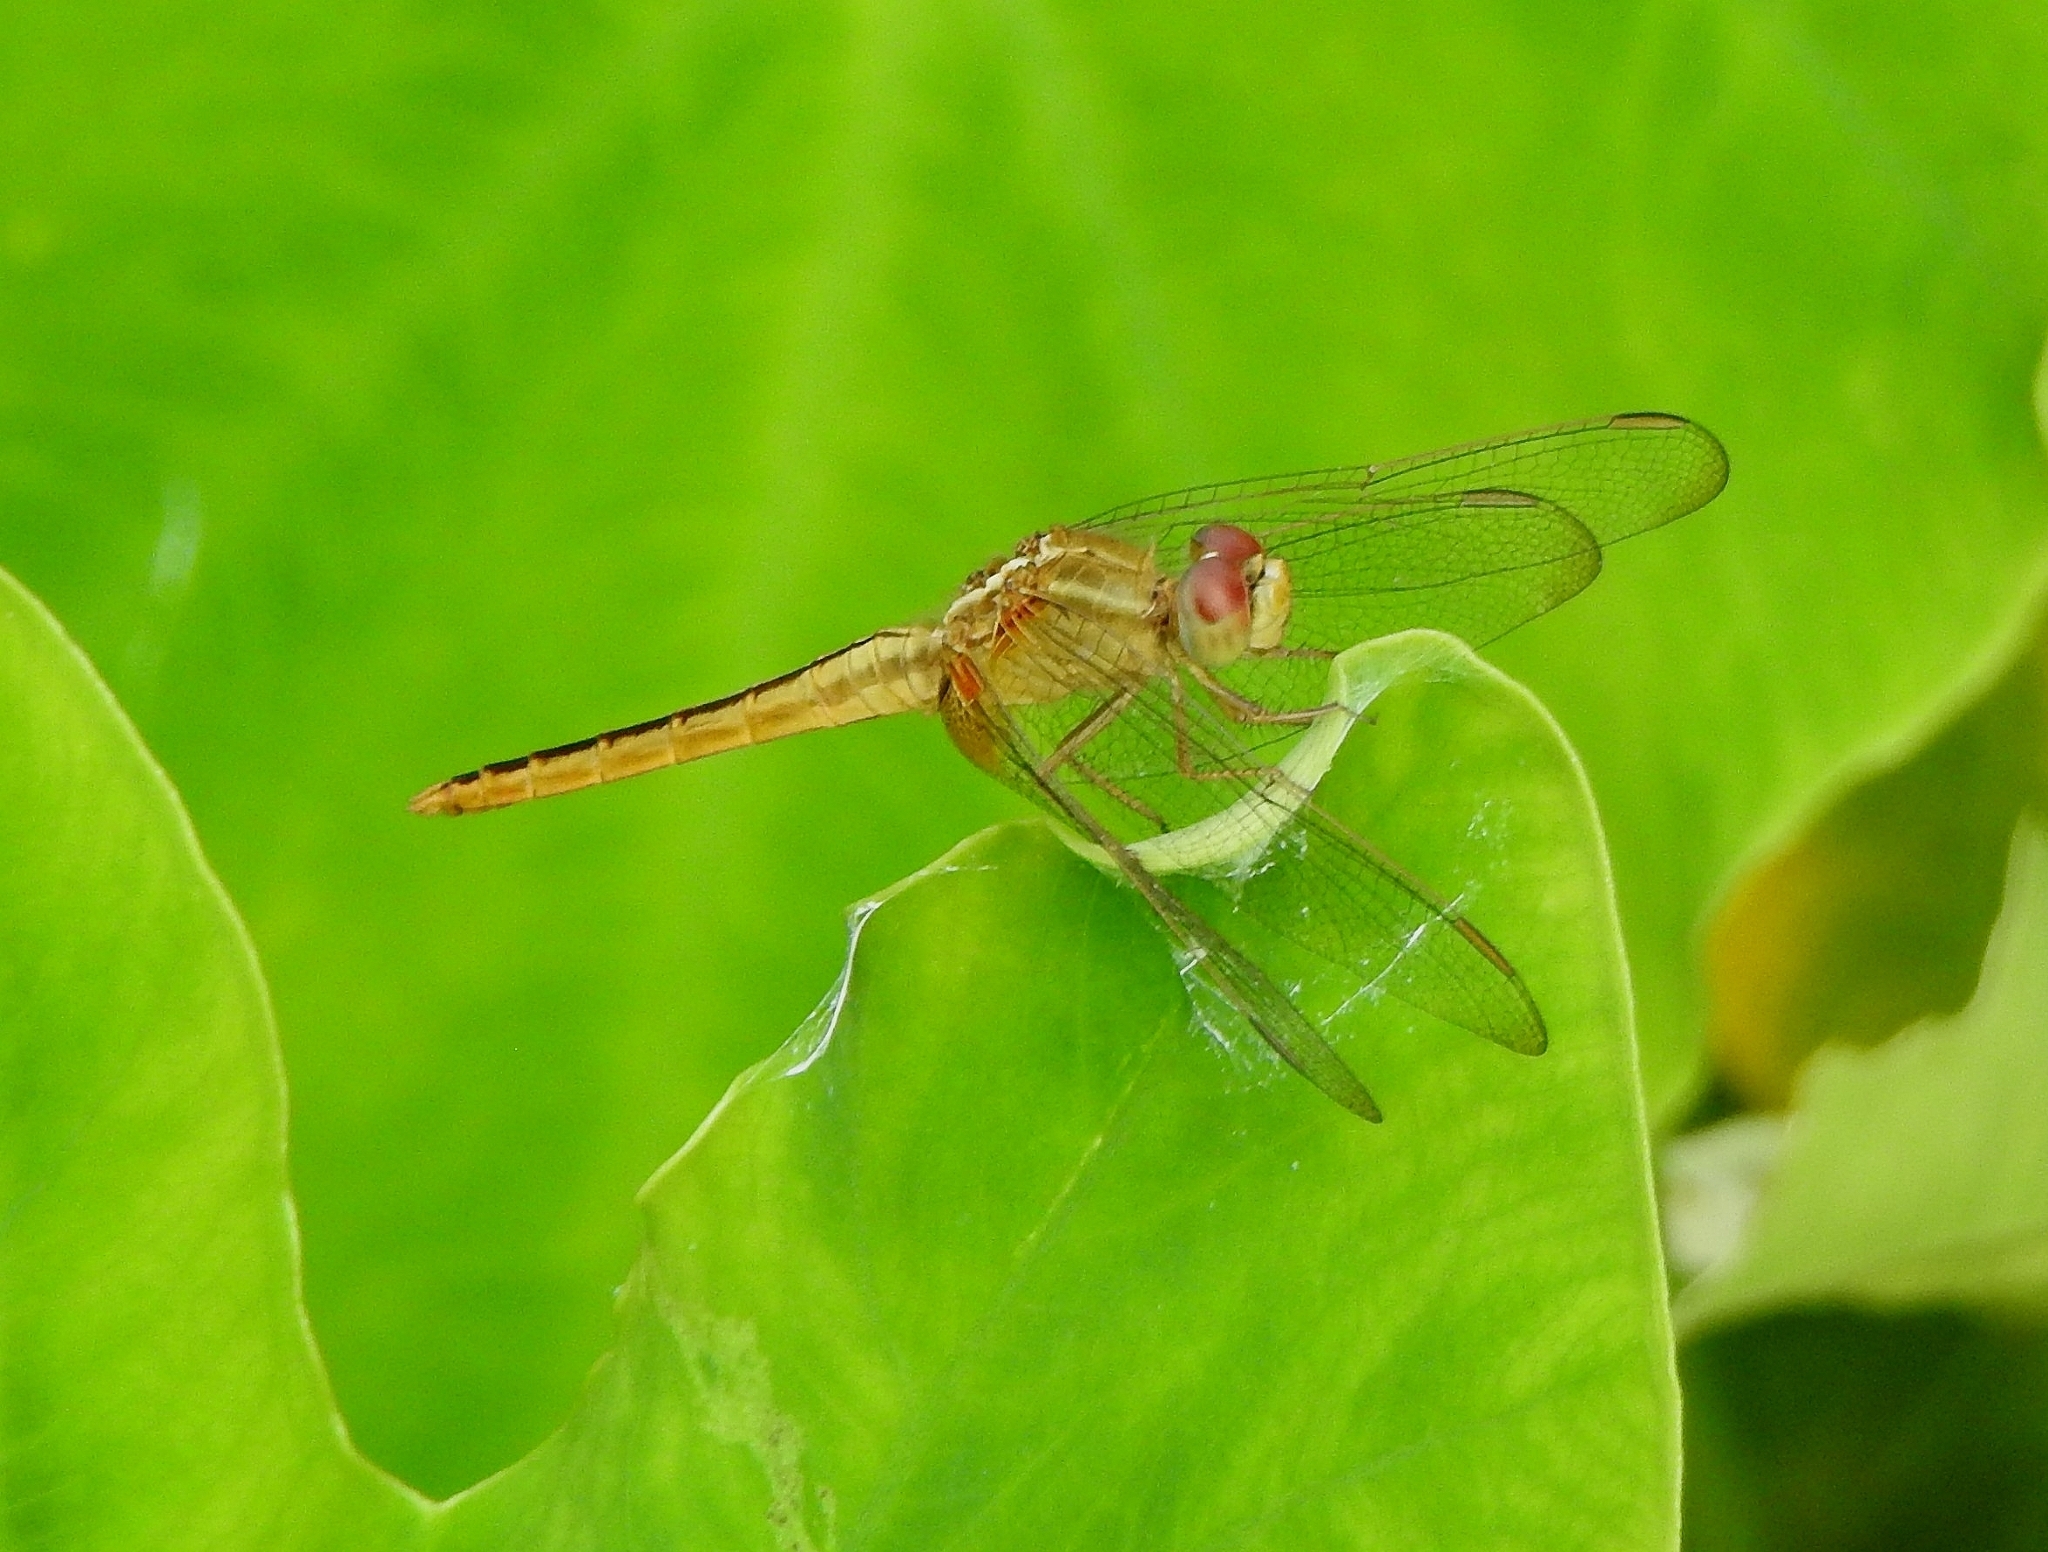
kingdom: Animalia
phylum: Arthropoda
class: Insecta
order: Odonata
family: Libellulidae
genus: Crocothemis
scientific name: Crocothemis servilia
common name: Scarlet skimmer
